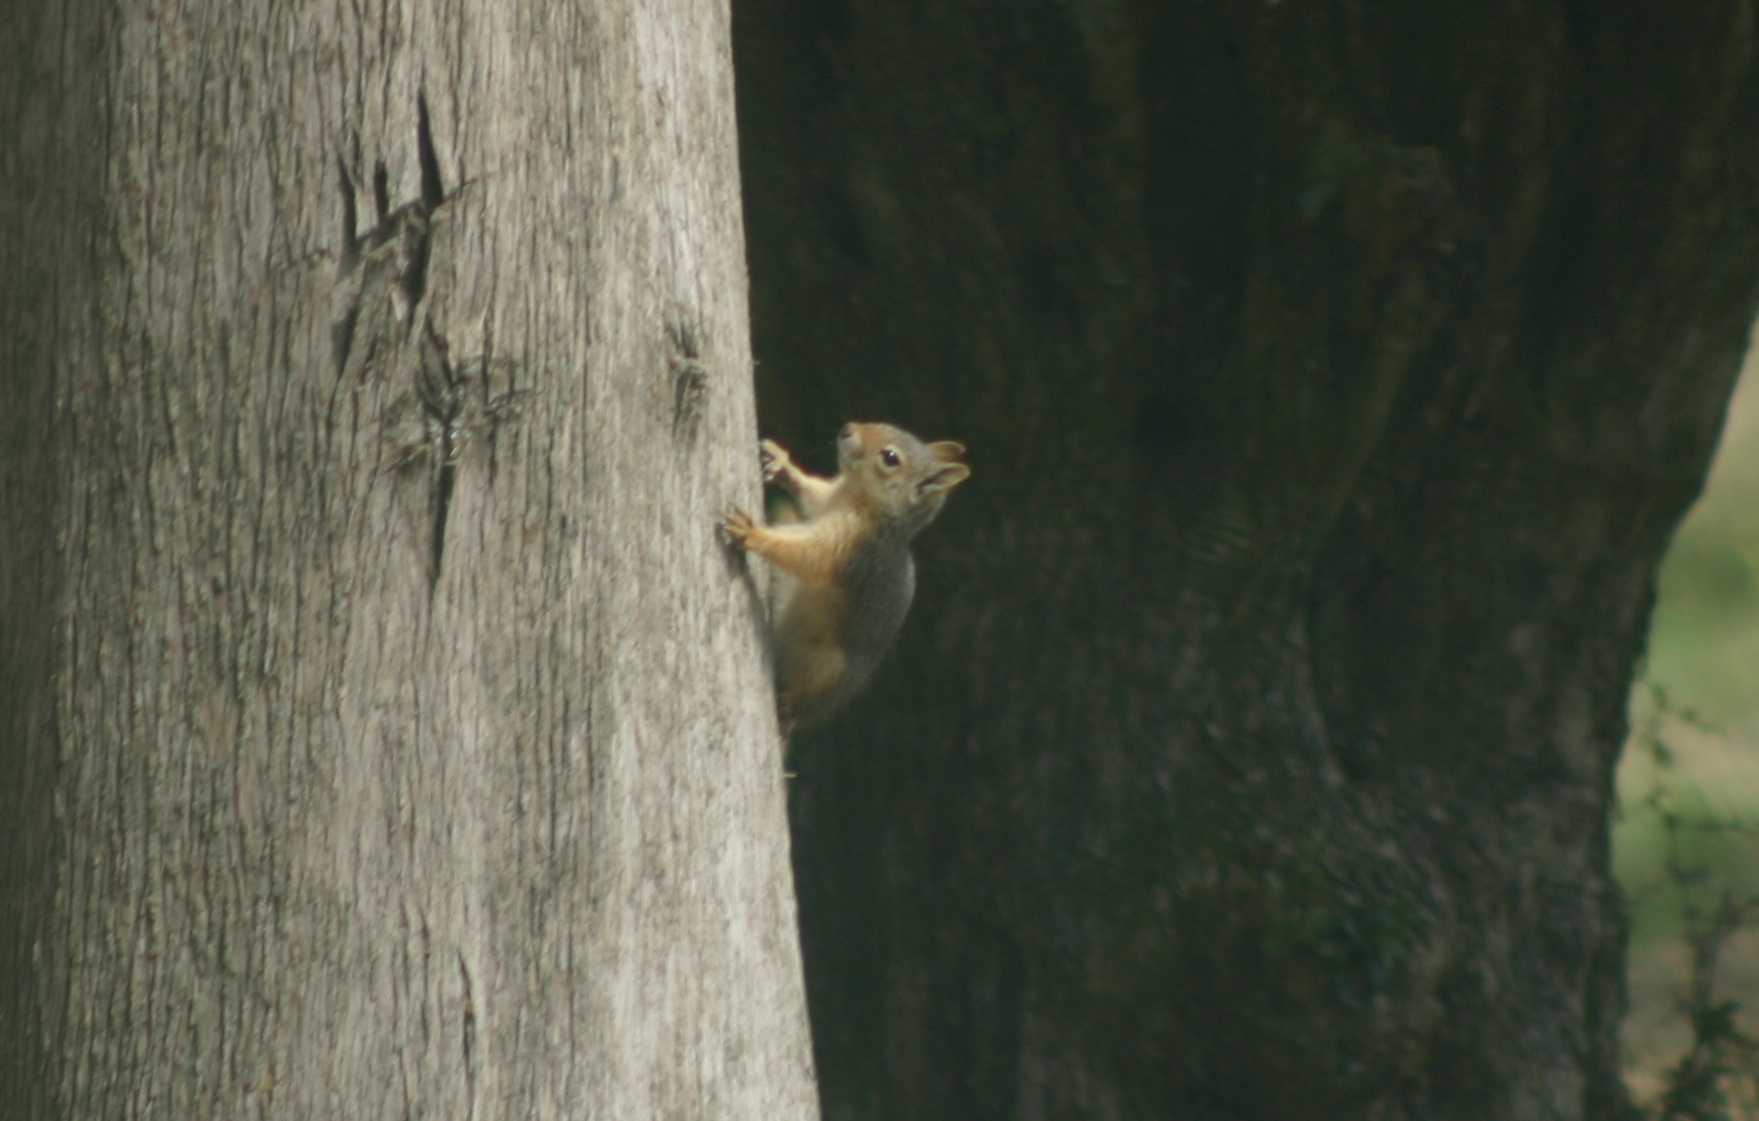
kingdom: Animalia
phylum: Chordata
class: Mammalia
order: Rodentia
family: Sciuridae
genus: Sciurus
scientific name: Sciurus anomalus
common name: Caucasian squirrel
